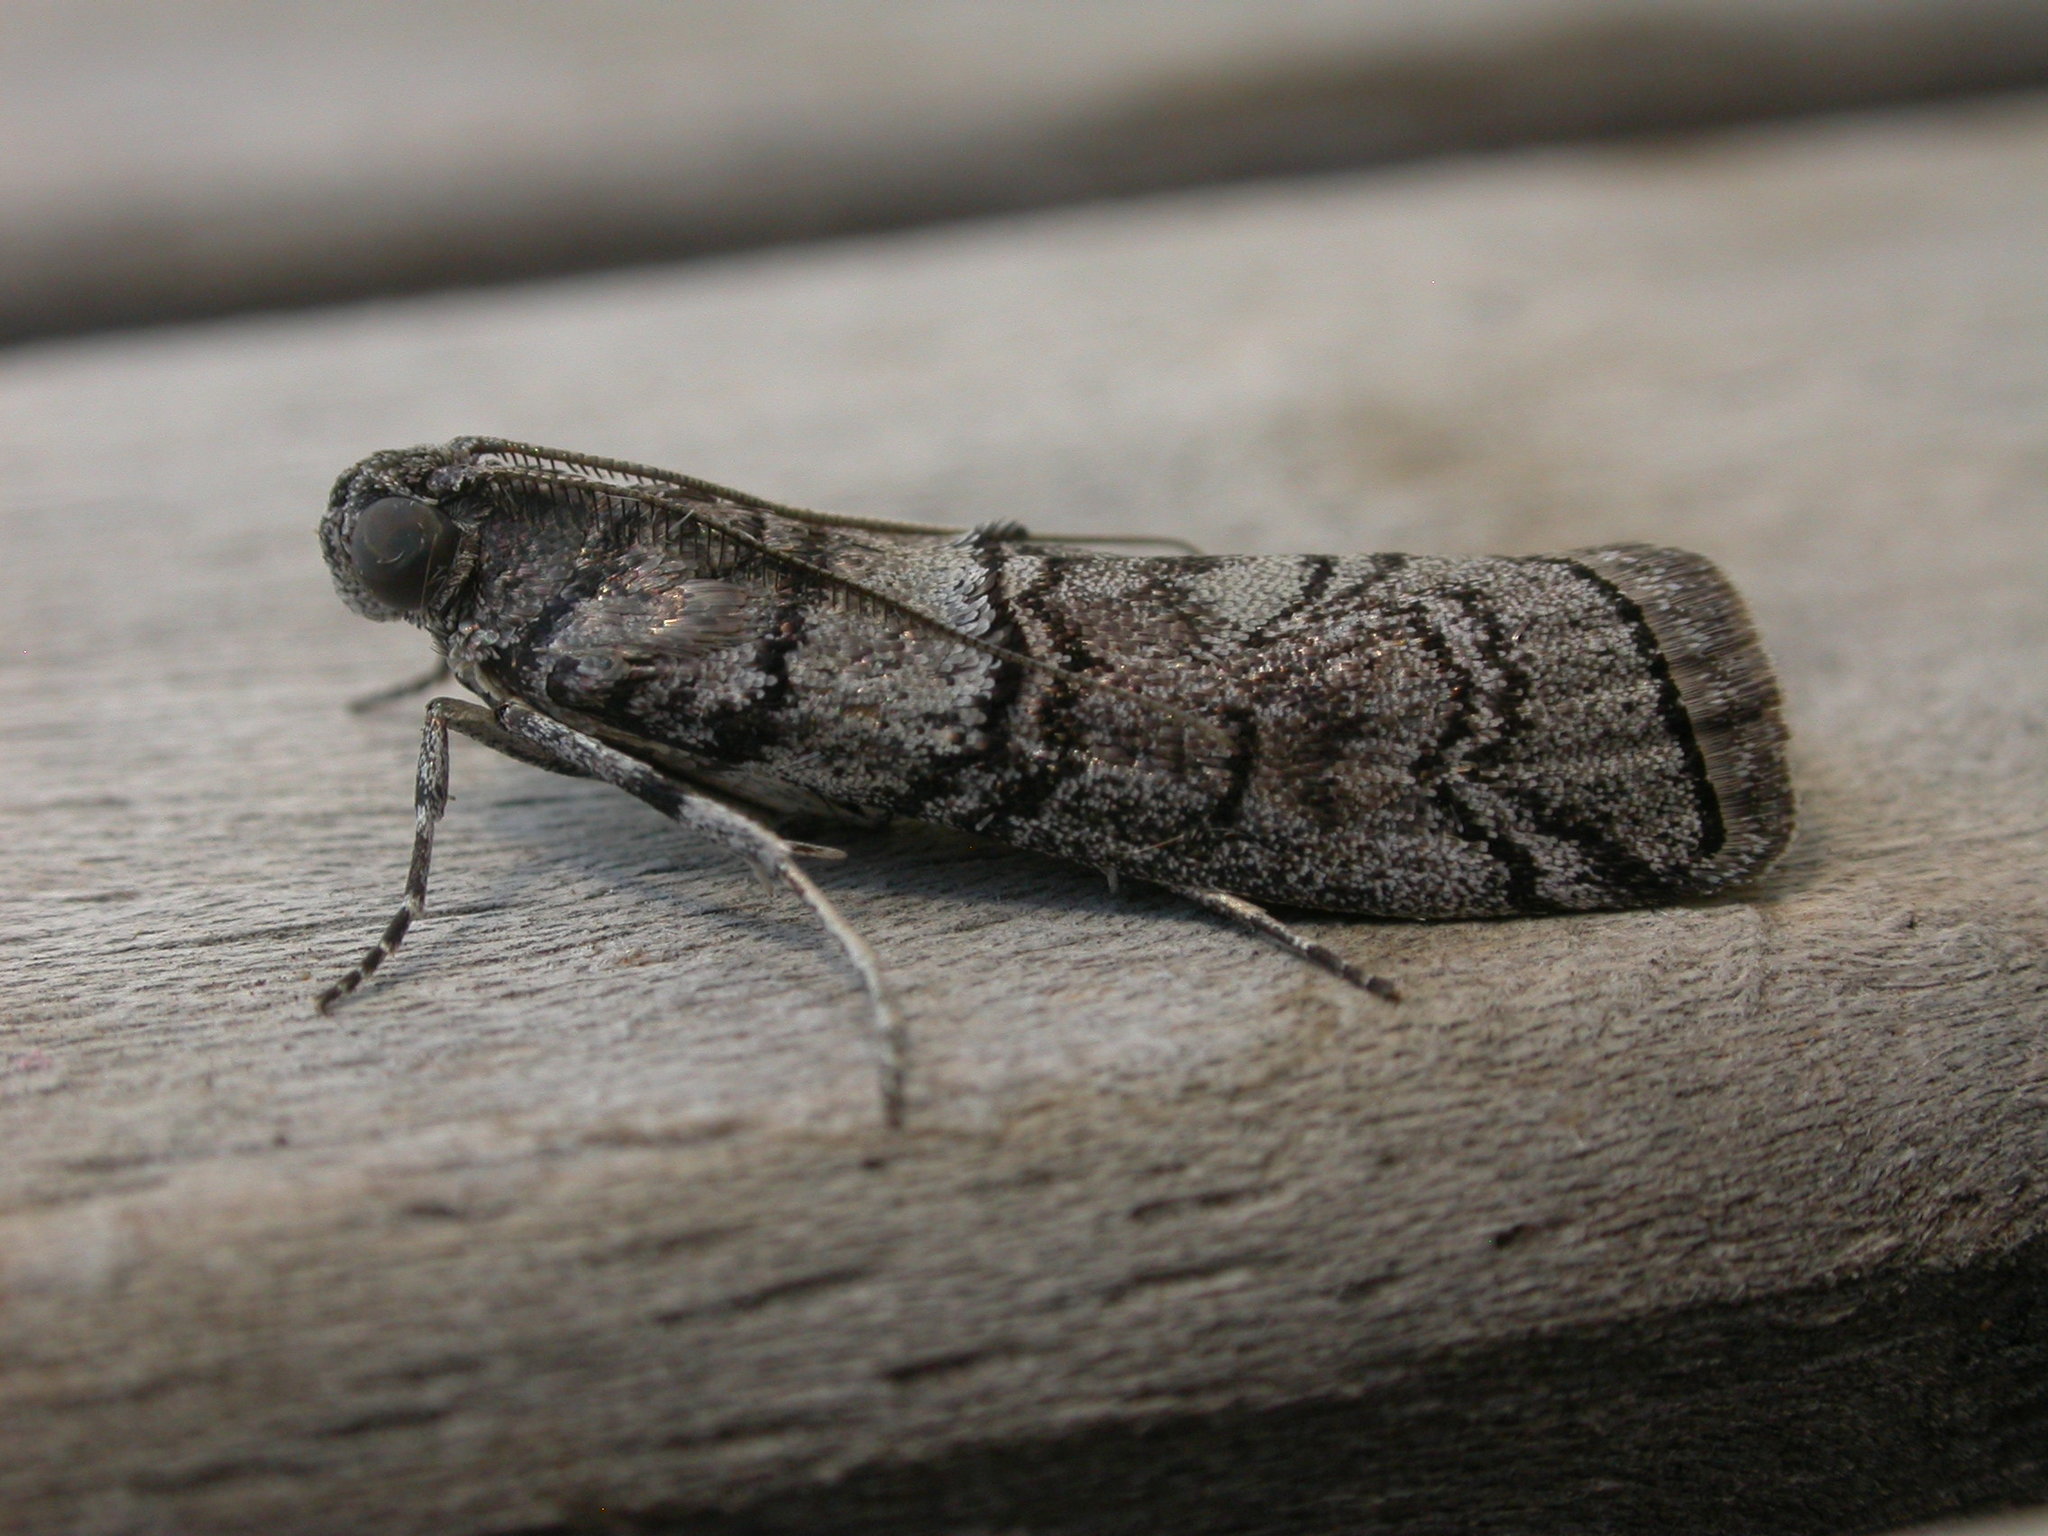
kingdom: Animalia
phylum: Arthropoda
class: Insecta
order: Lepidoptera
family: Pyralidae
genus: Ctenomeristis
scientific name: Ctenomeristis almella
